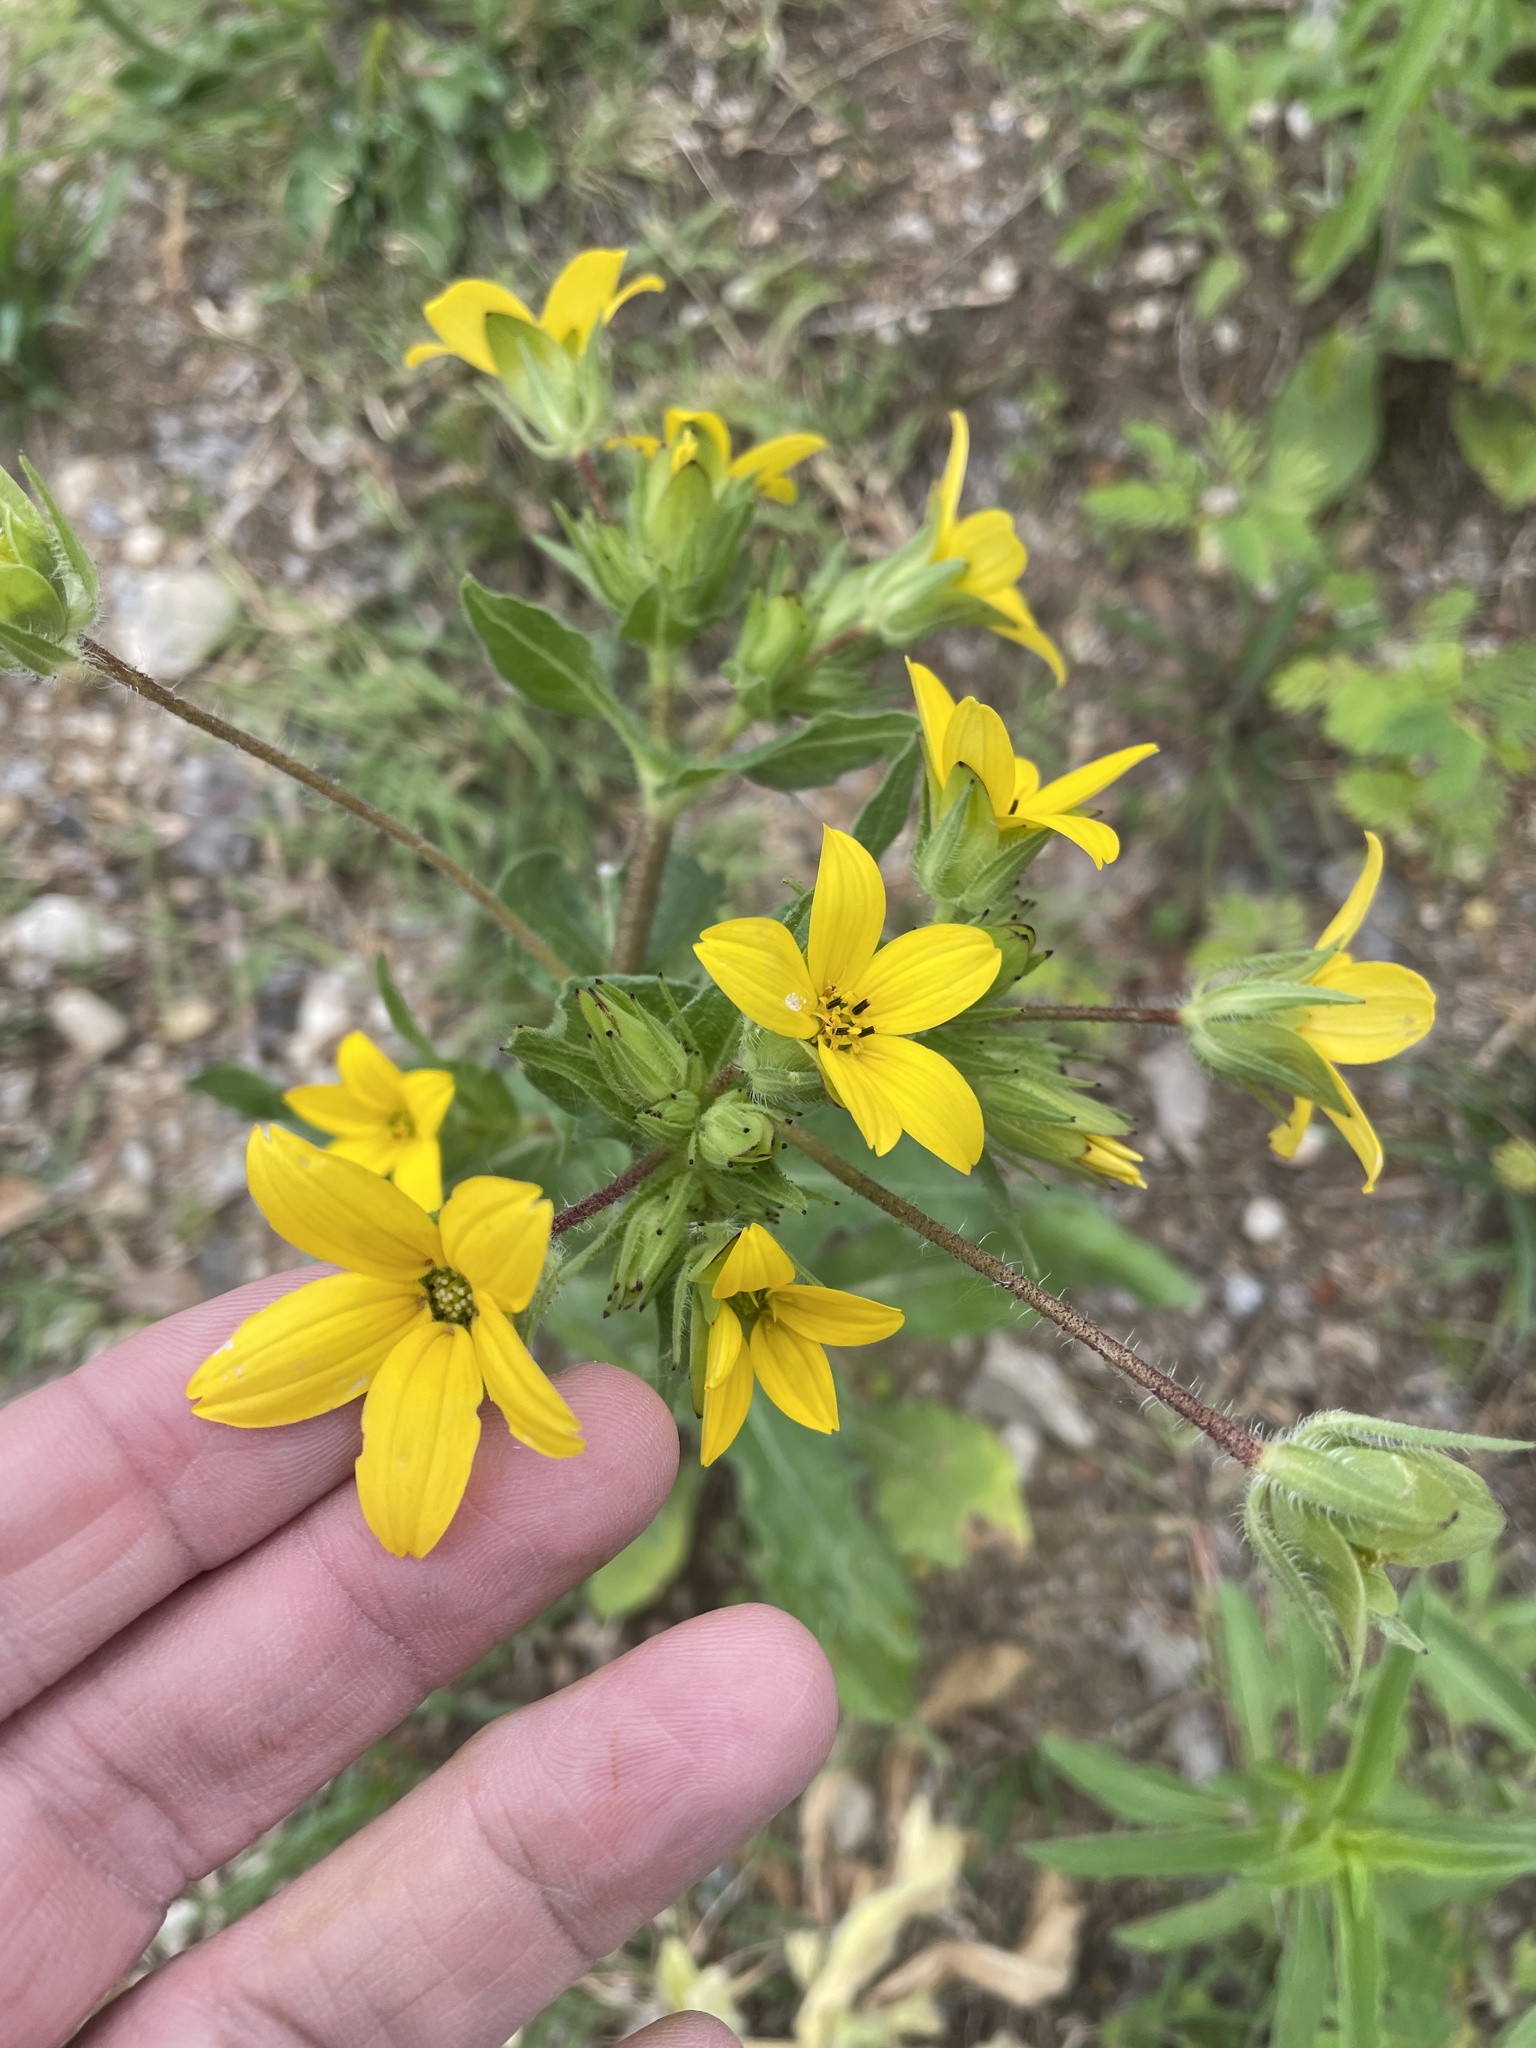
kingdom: Plantae
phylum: Tracheophyta
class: Magnoliopsida
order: Asterales
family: Asteraceae
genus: Lindheimera
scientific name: Lindheimera texana
